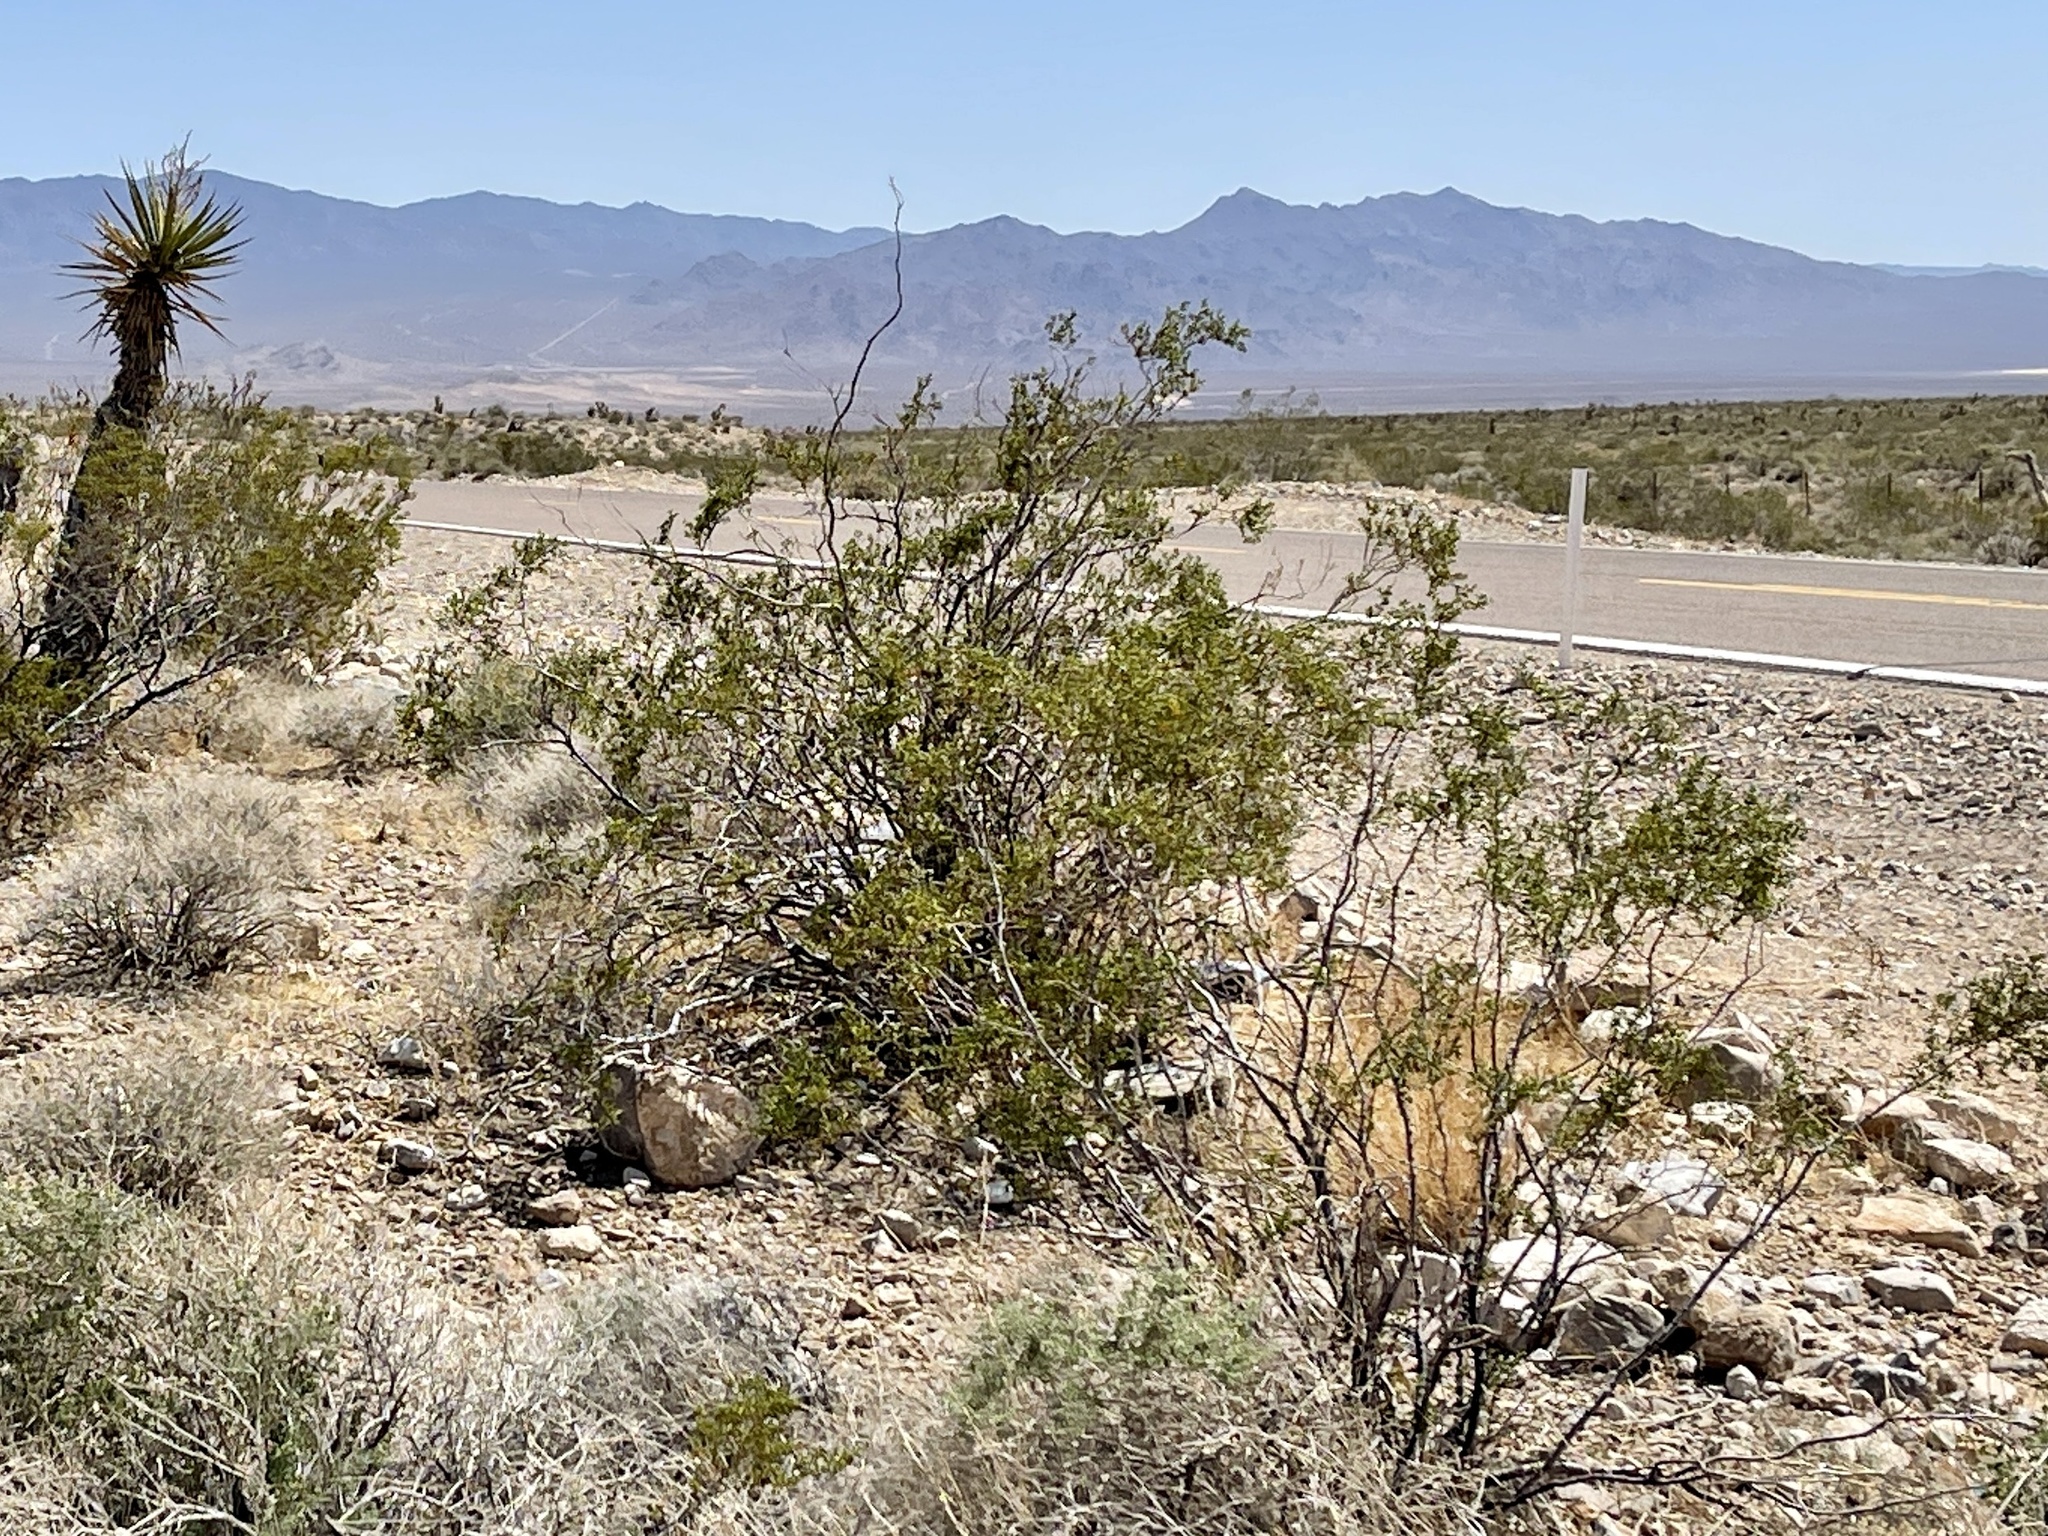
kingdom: Plantae
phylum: Tracheophyta
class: Magnoliopsida
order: Zygophyllales
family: Zygophyllaceae
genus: Larrea
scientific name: Larrea tridentata
